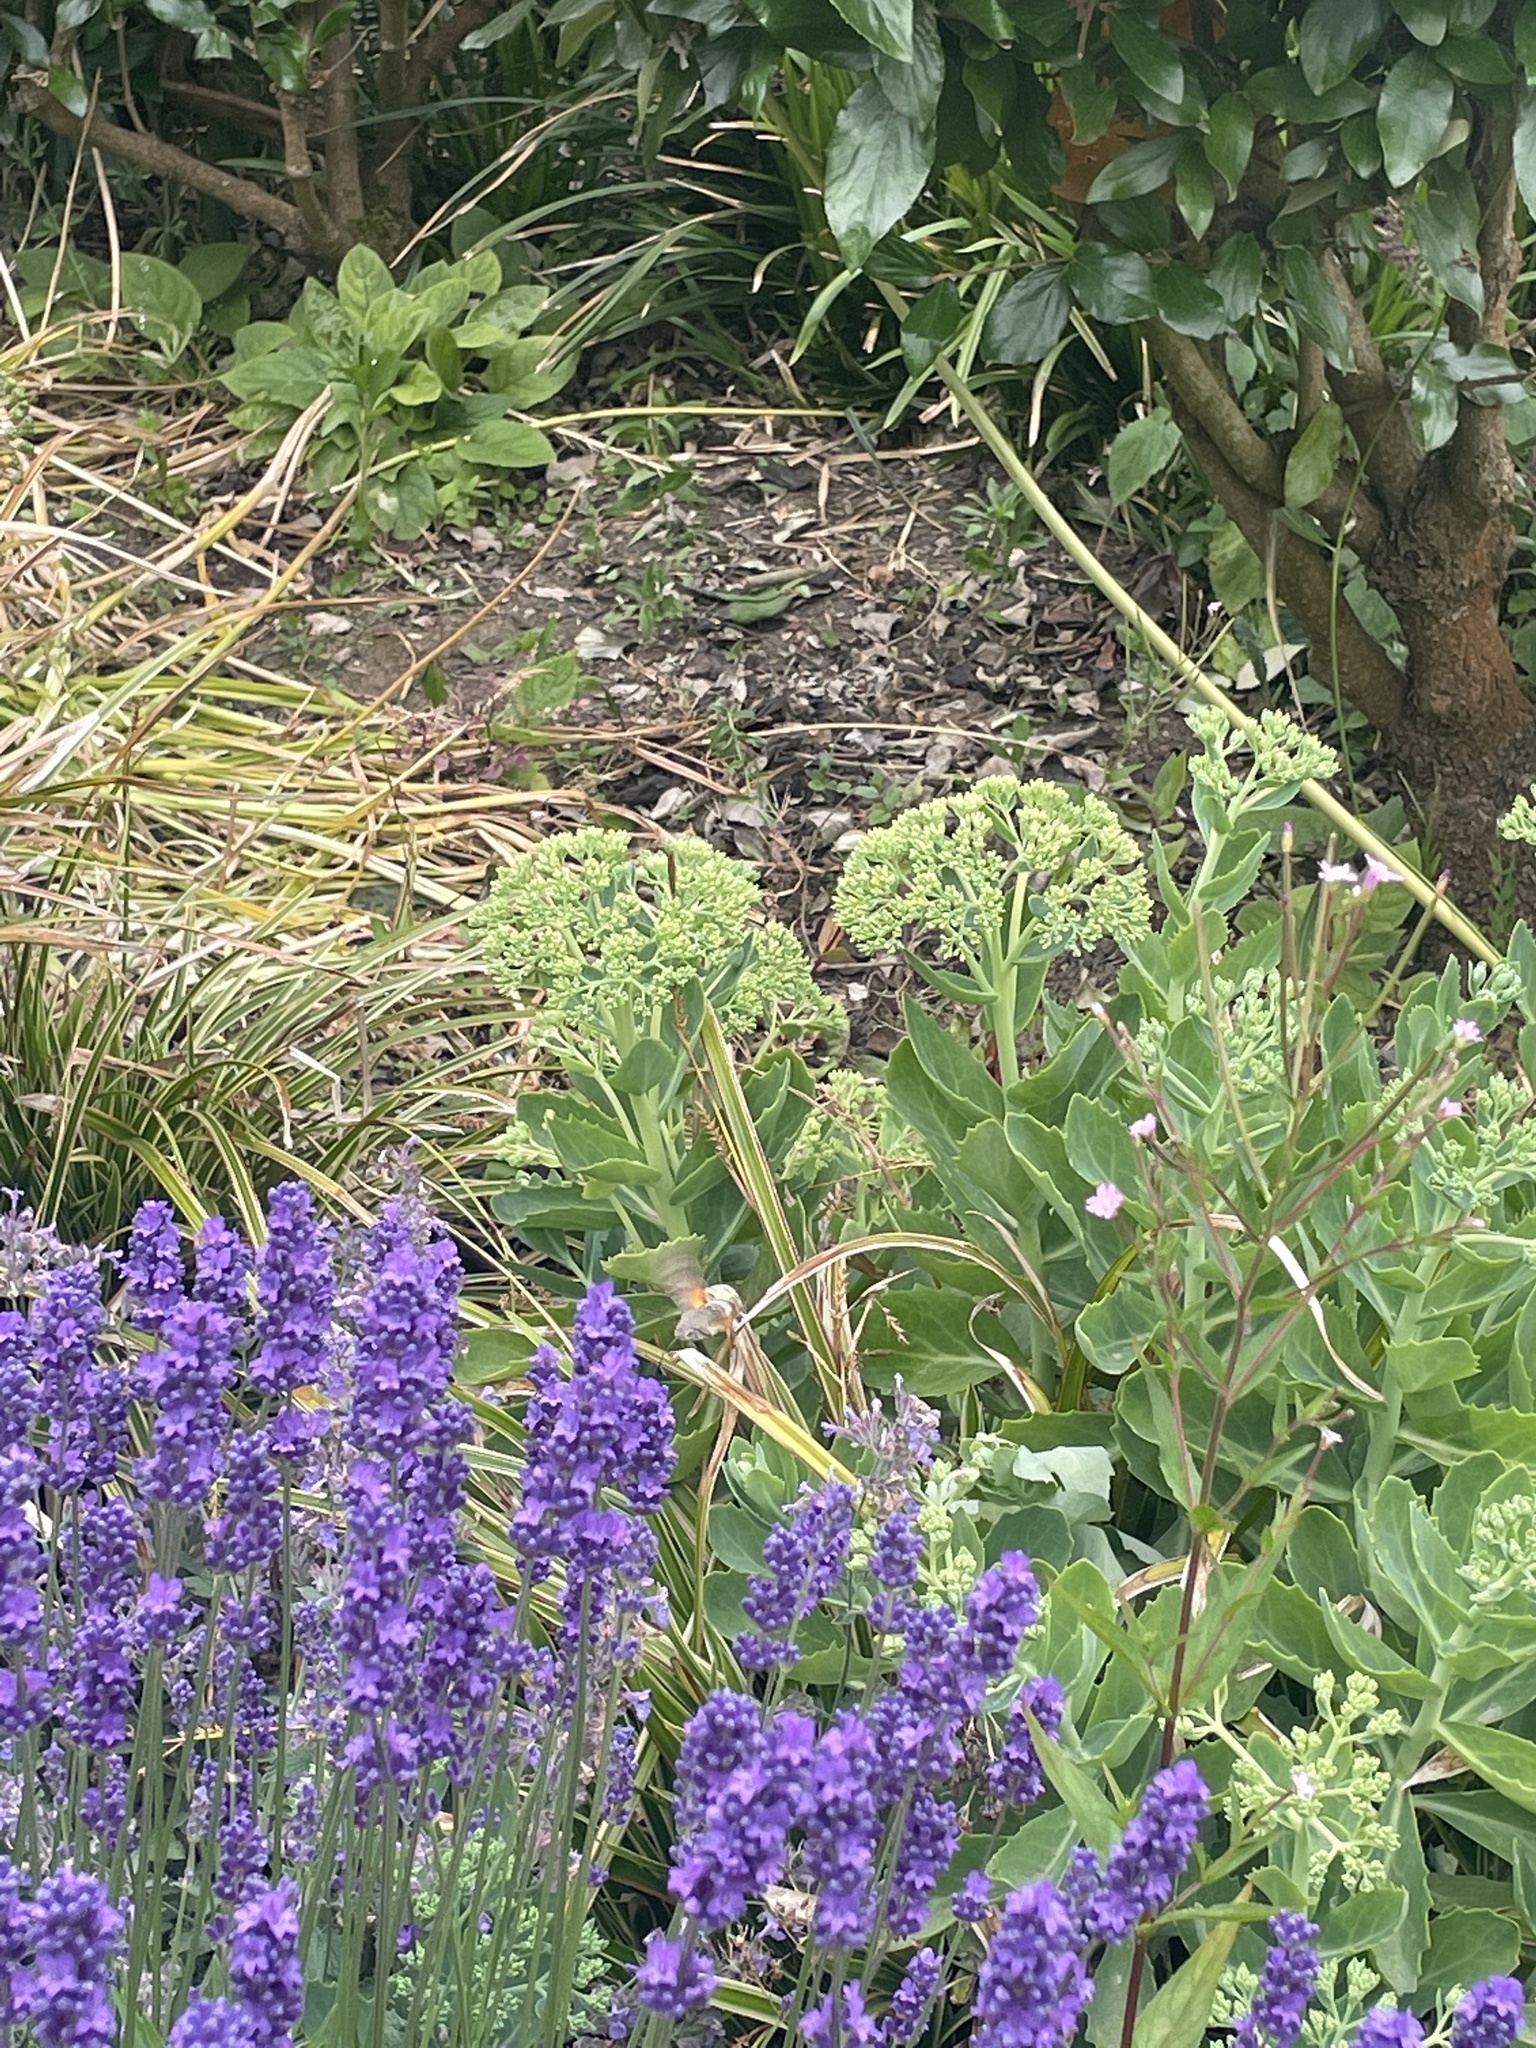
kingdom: Animalia
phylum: Arthropoda
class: Insecta
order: Lepidoptera
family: Sphingidae
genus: Macroglossum
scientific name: Macroglossum stellatarum
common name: Humming-bird hawk-moth
